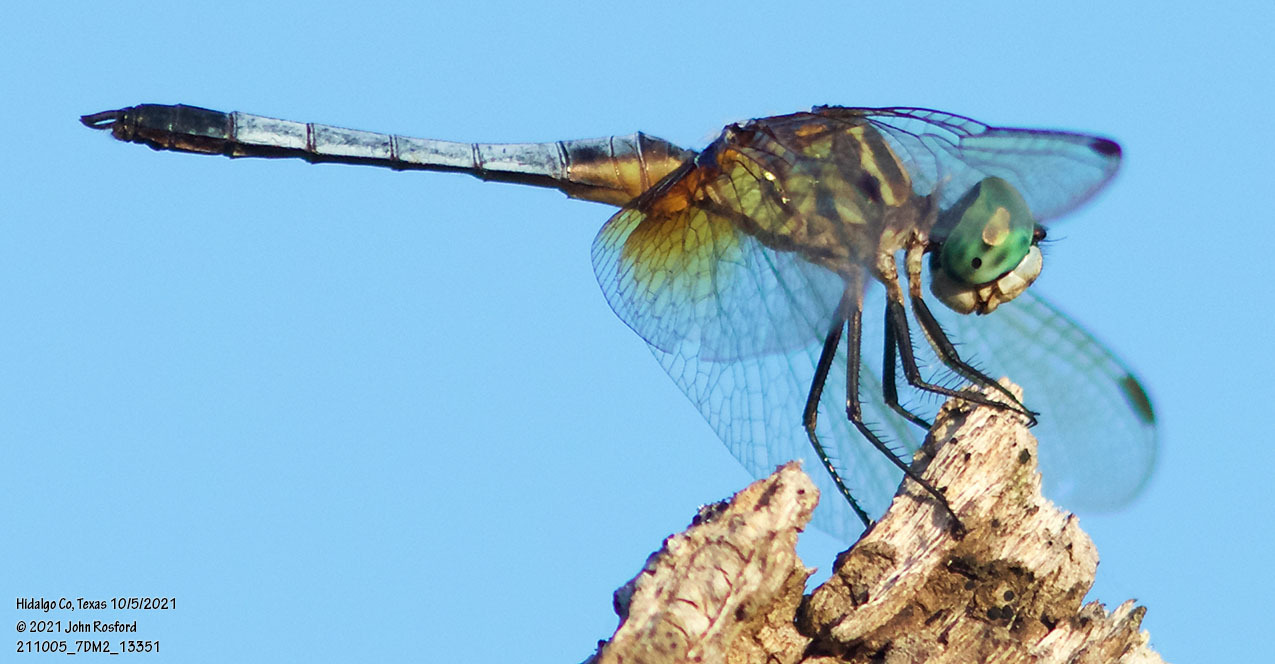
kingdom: Animalia
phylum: Arthropoda
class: Insecta
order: Odonata
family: Libellulidae
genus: Pachydiplax
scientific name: Pachydiplax longipennis
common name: Blue dasher
